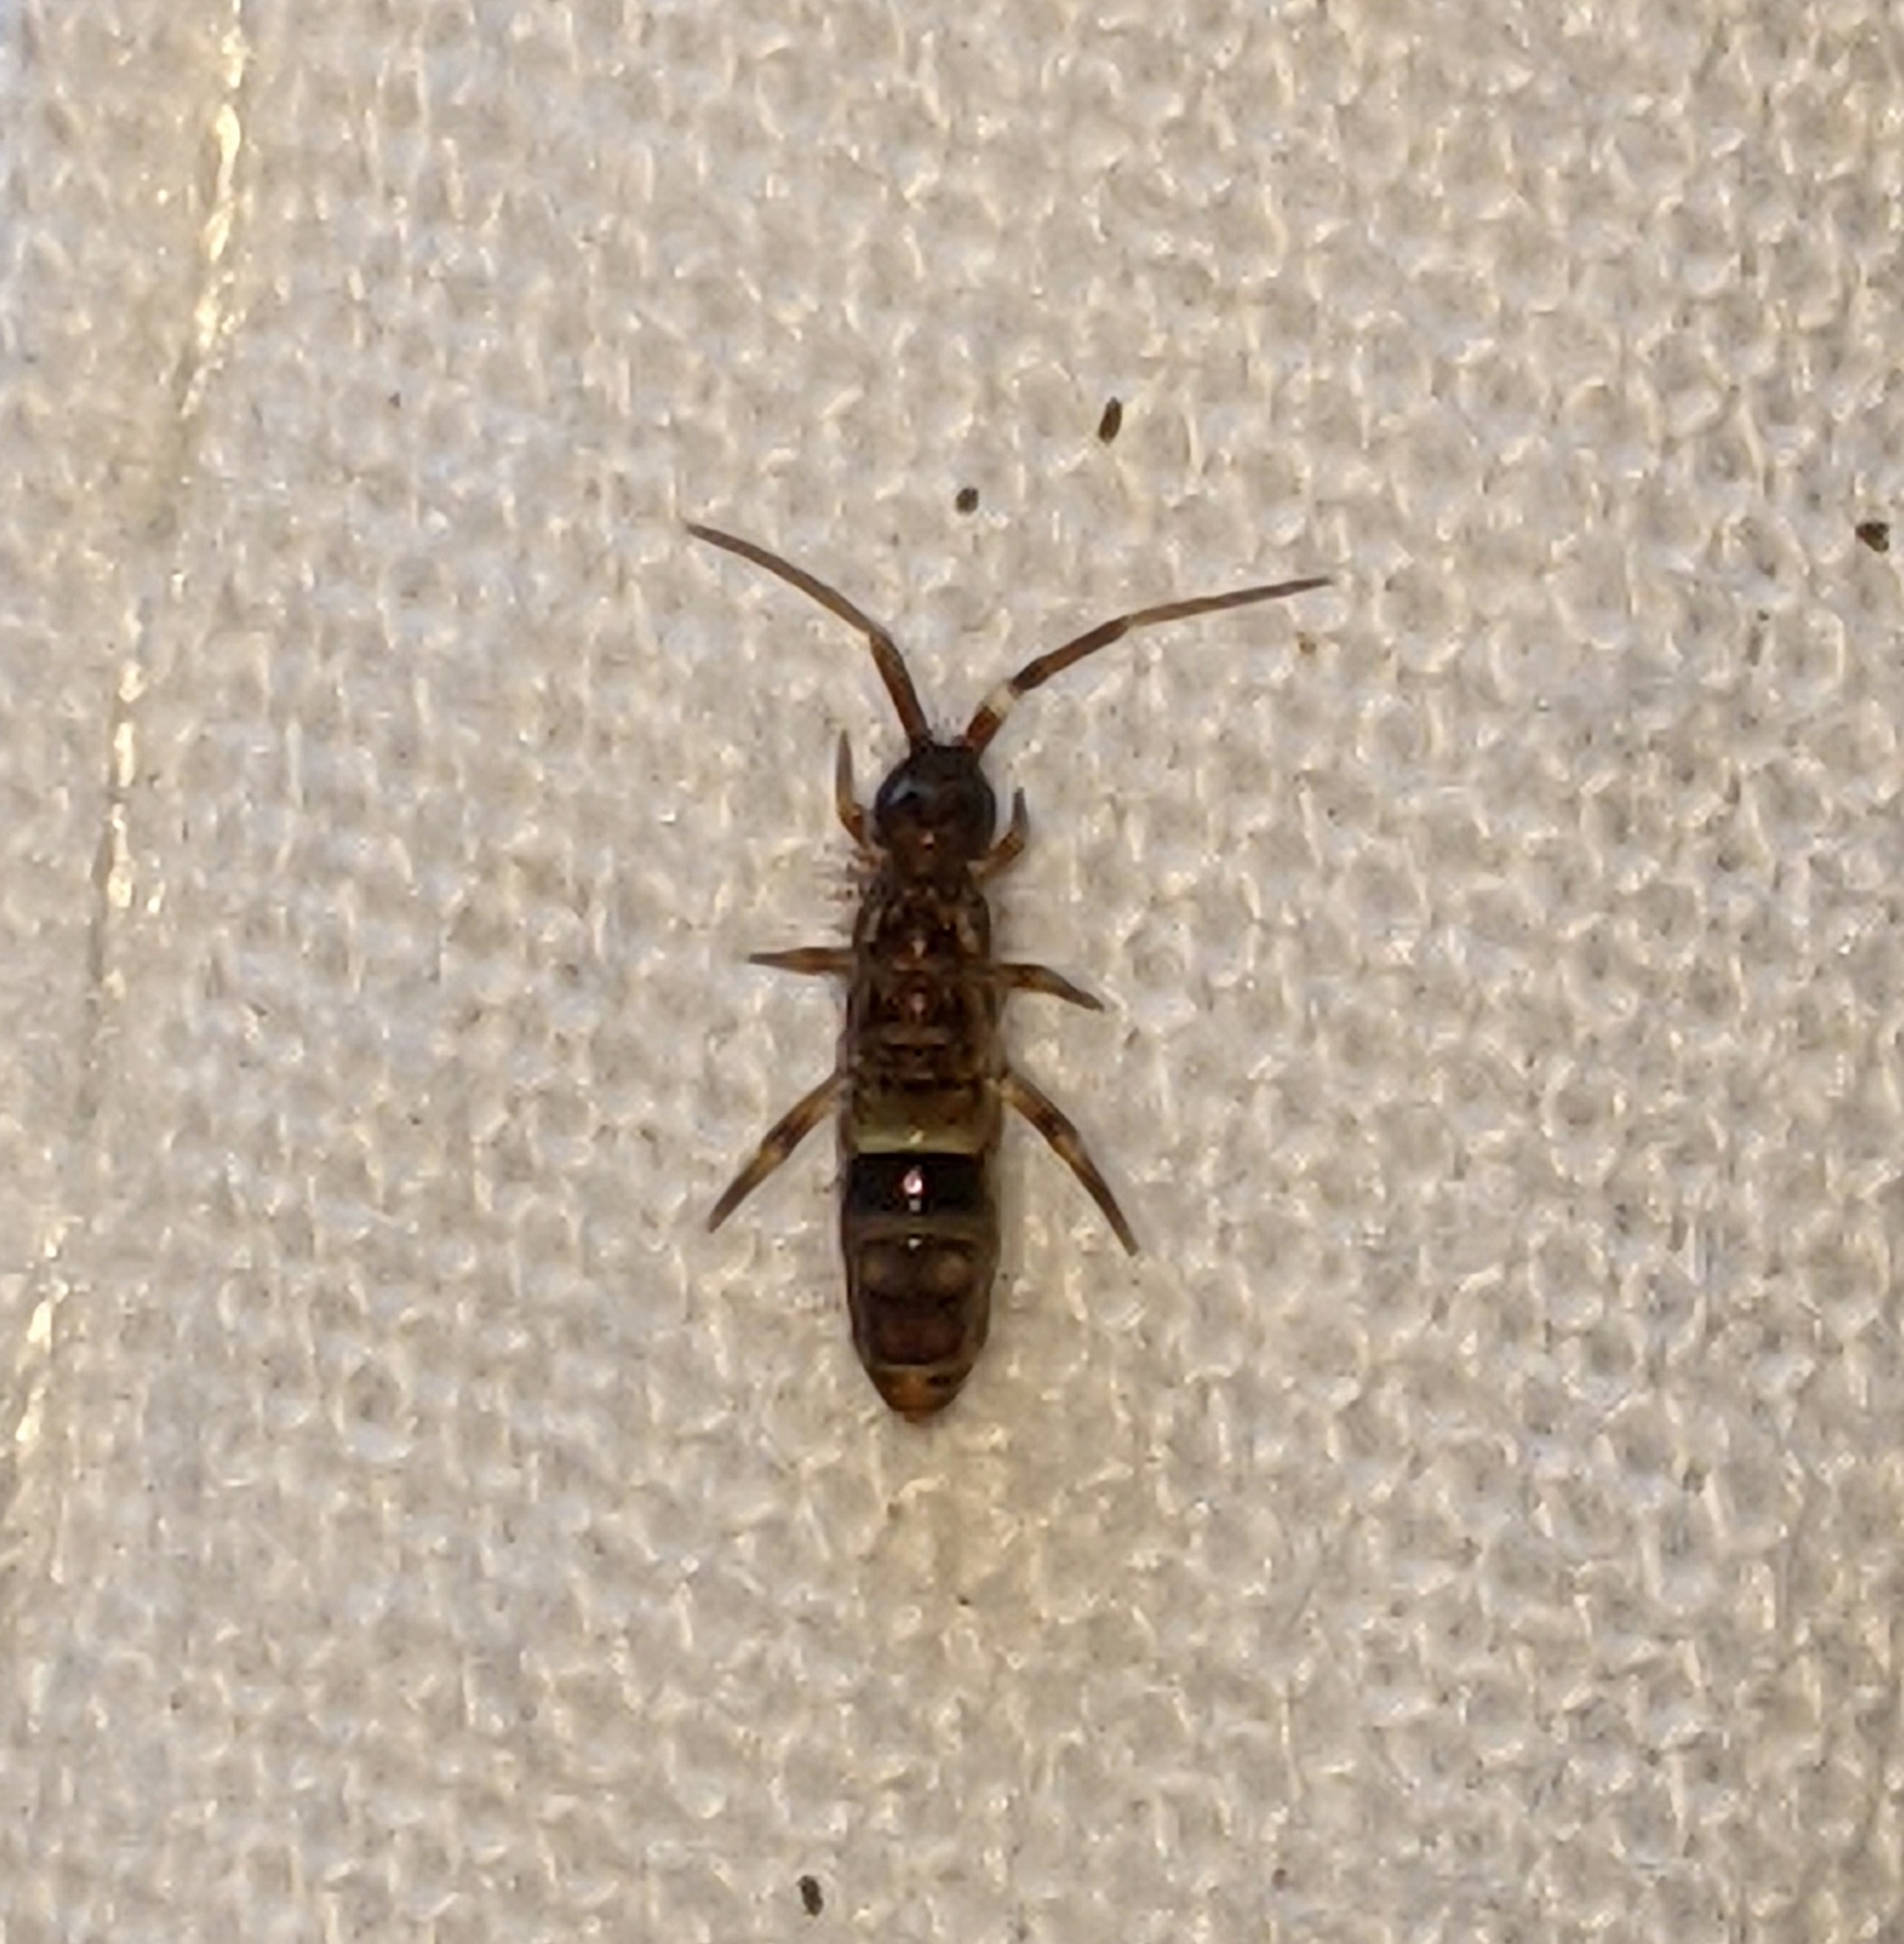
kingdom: Animalia
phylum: Arthropoda
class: Collembola
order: Entomobryomorpha
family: Orchesellidae
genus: Orchesella
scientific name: Orchesella cincta
